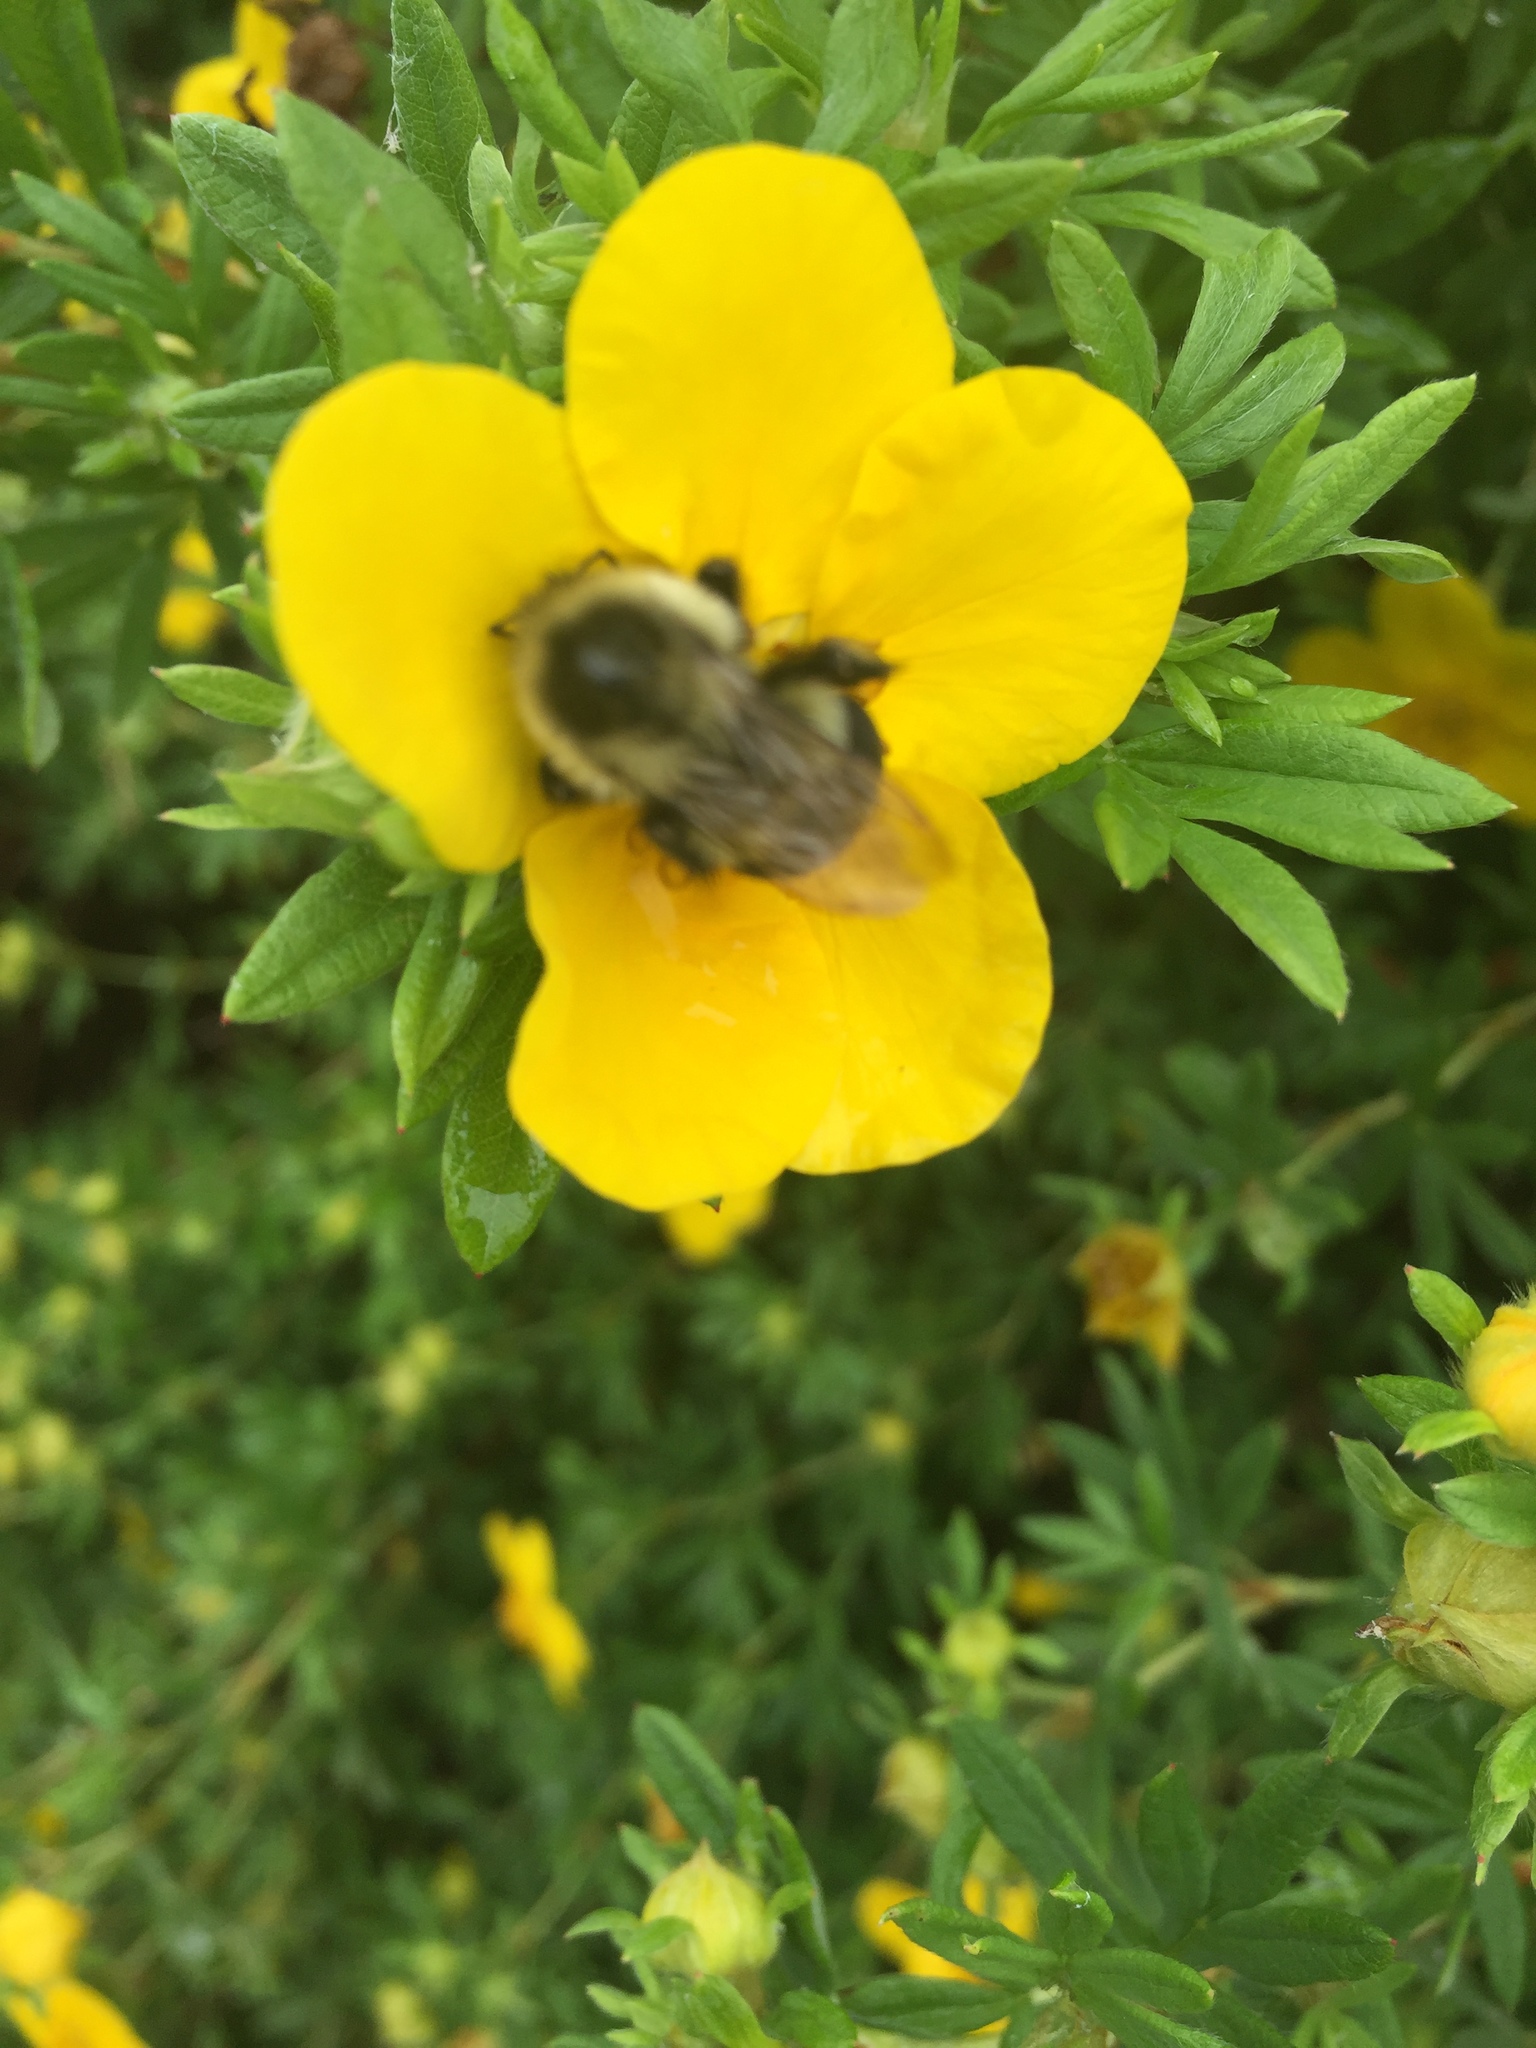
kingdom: Animalia
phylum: Arthropoda
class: Insecta
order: Hymenoptera
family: Apidae
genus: Bombus
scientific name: Bombus impatiens
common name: Common eastern bumble bee
